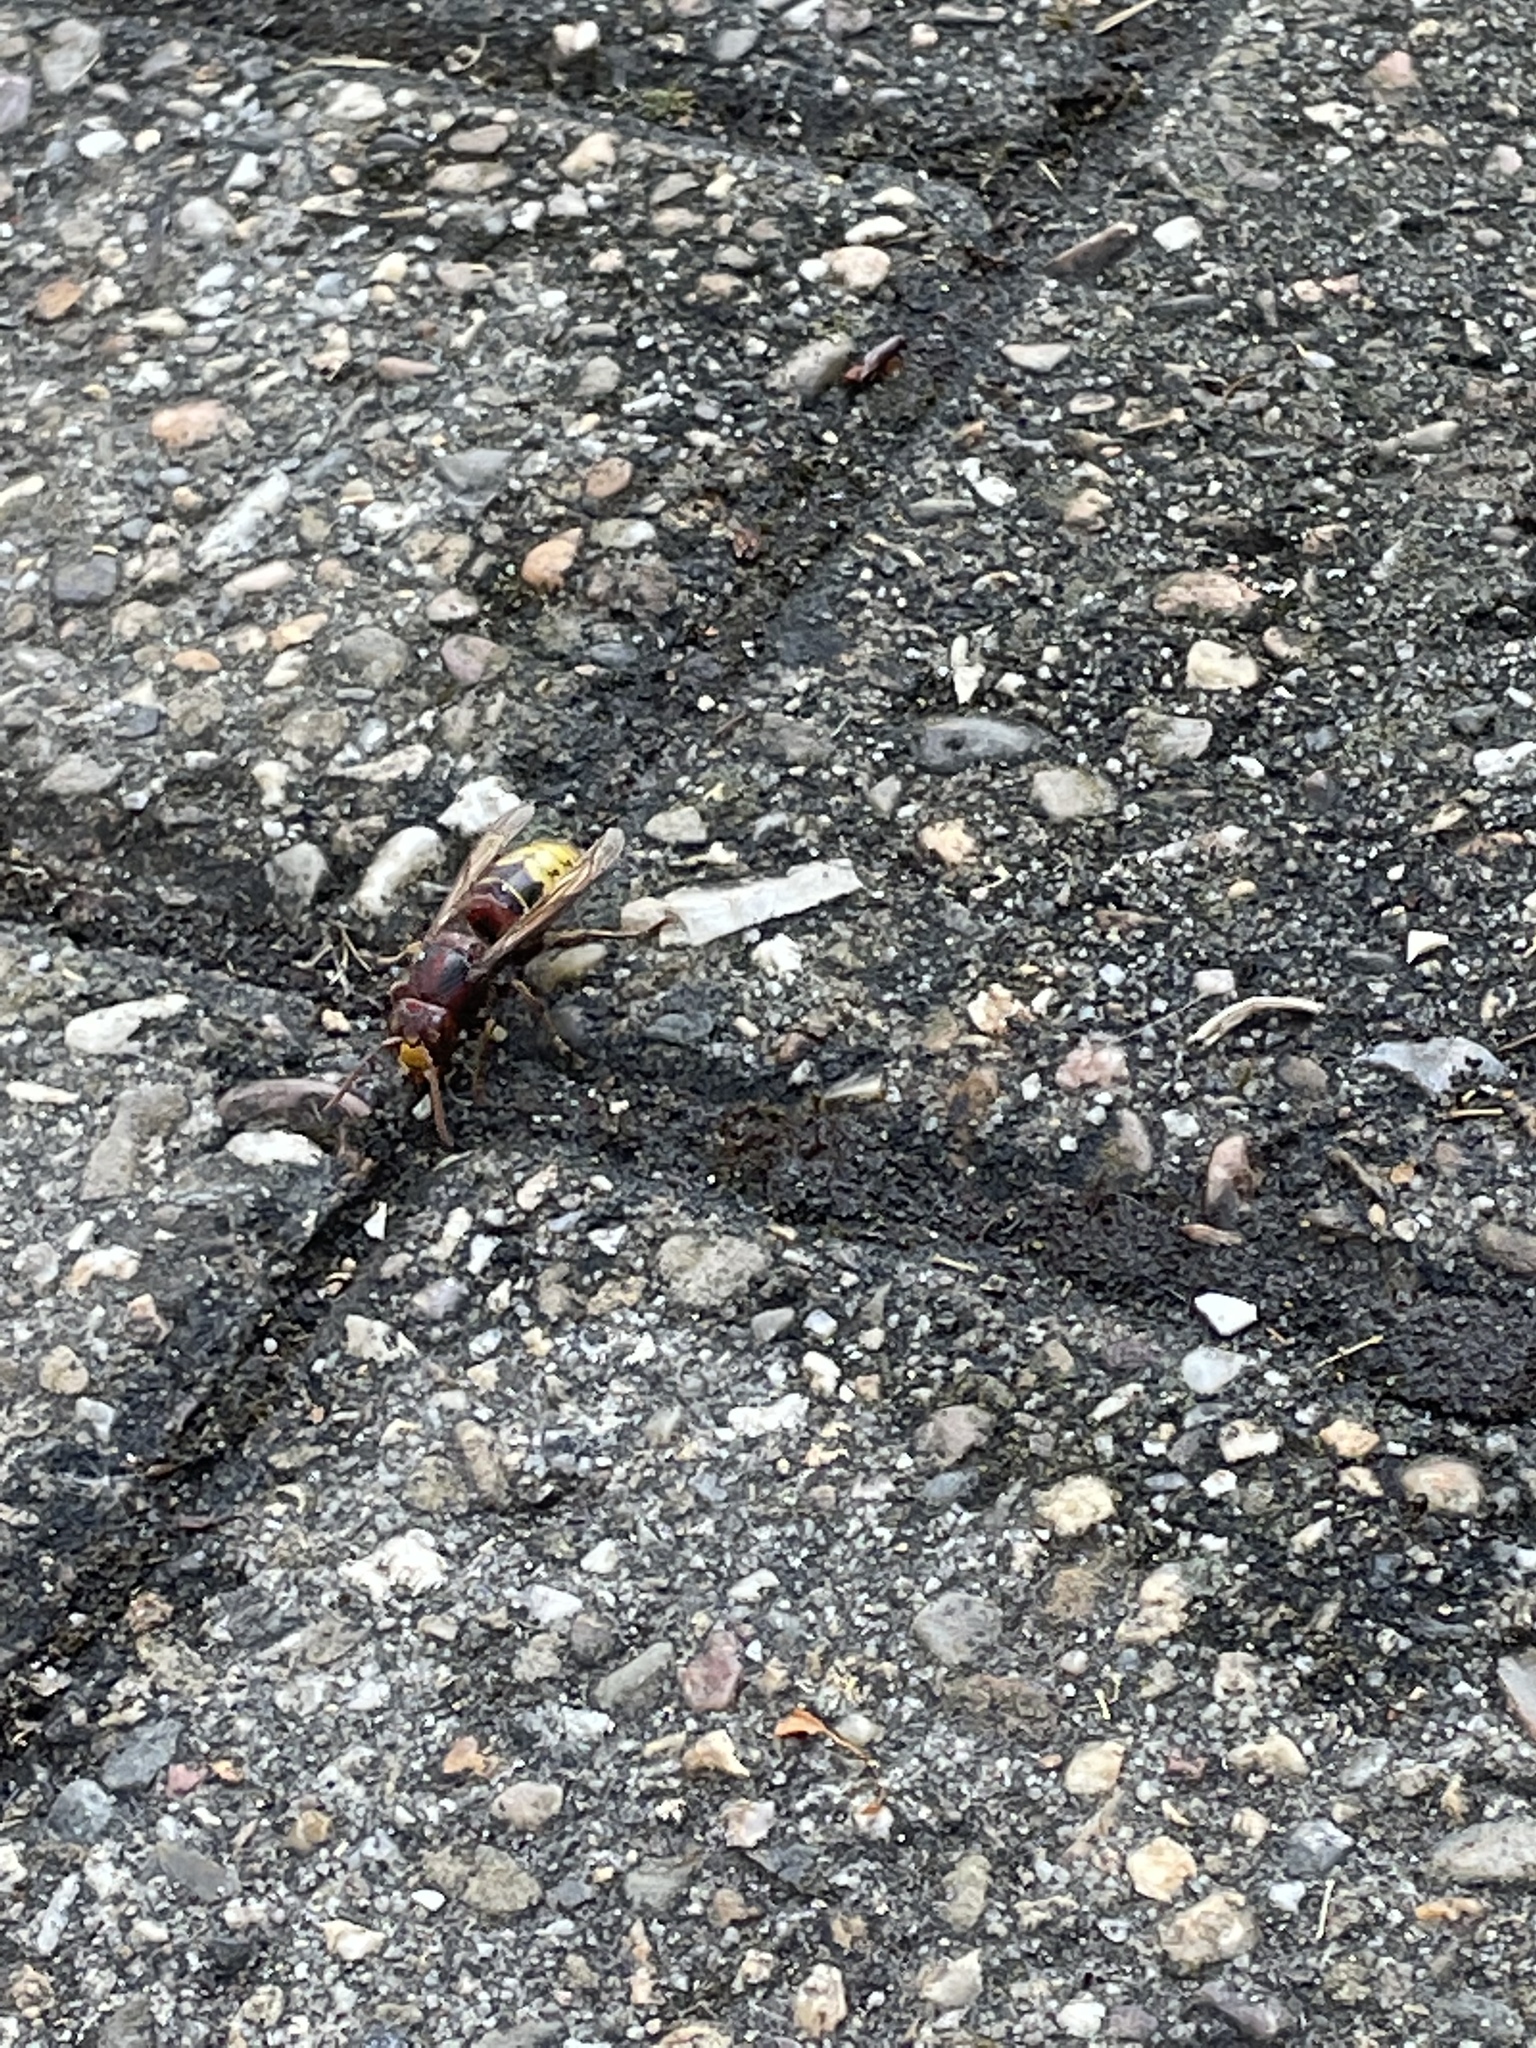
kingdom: Animalia
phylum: Arthropoda
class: Insecta
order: Hymenoptera
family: Vespidae
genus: Vespa
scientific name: Vespa crabro
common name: Hornet
